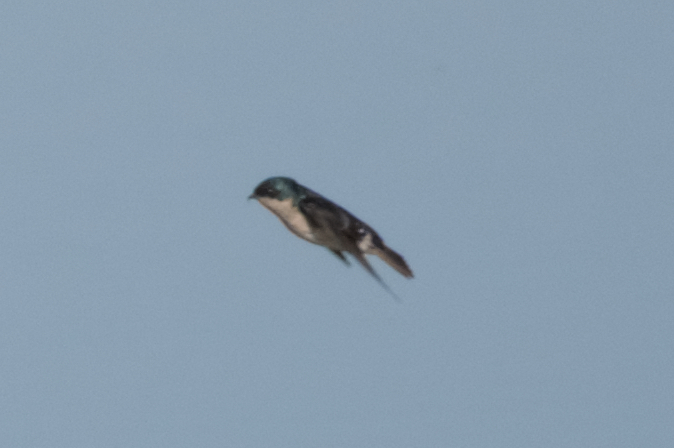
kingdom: Animalia
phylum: Chordata
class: Aves
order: Passeriformes
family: Hirundinidae
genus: Tachycineta
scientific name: Tachycineta bicolor
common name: Tree swallow
